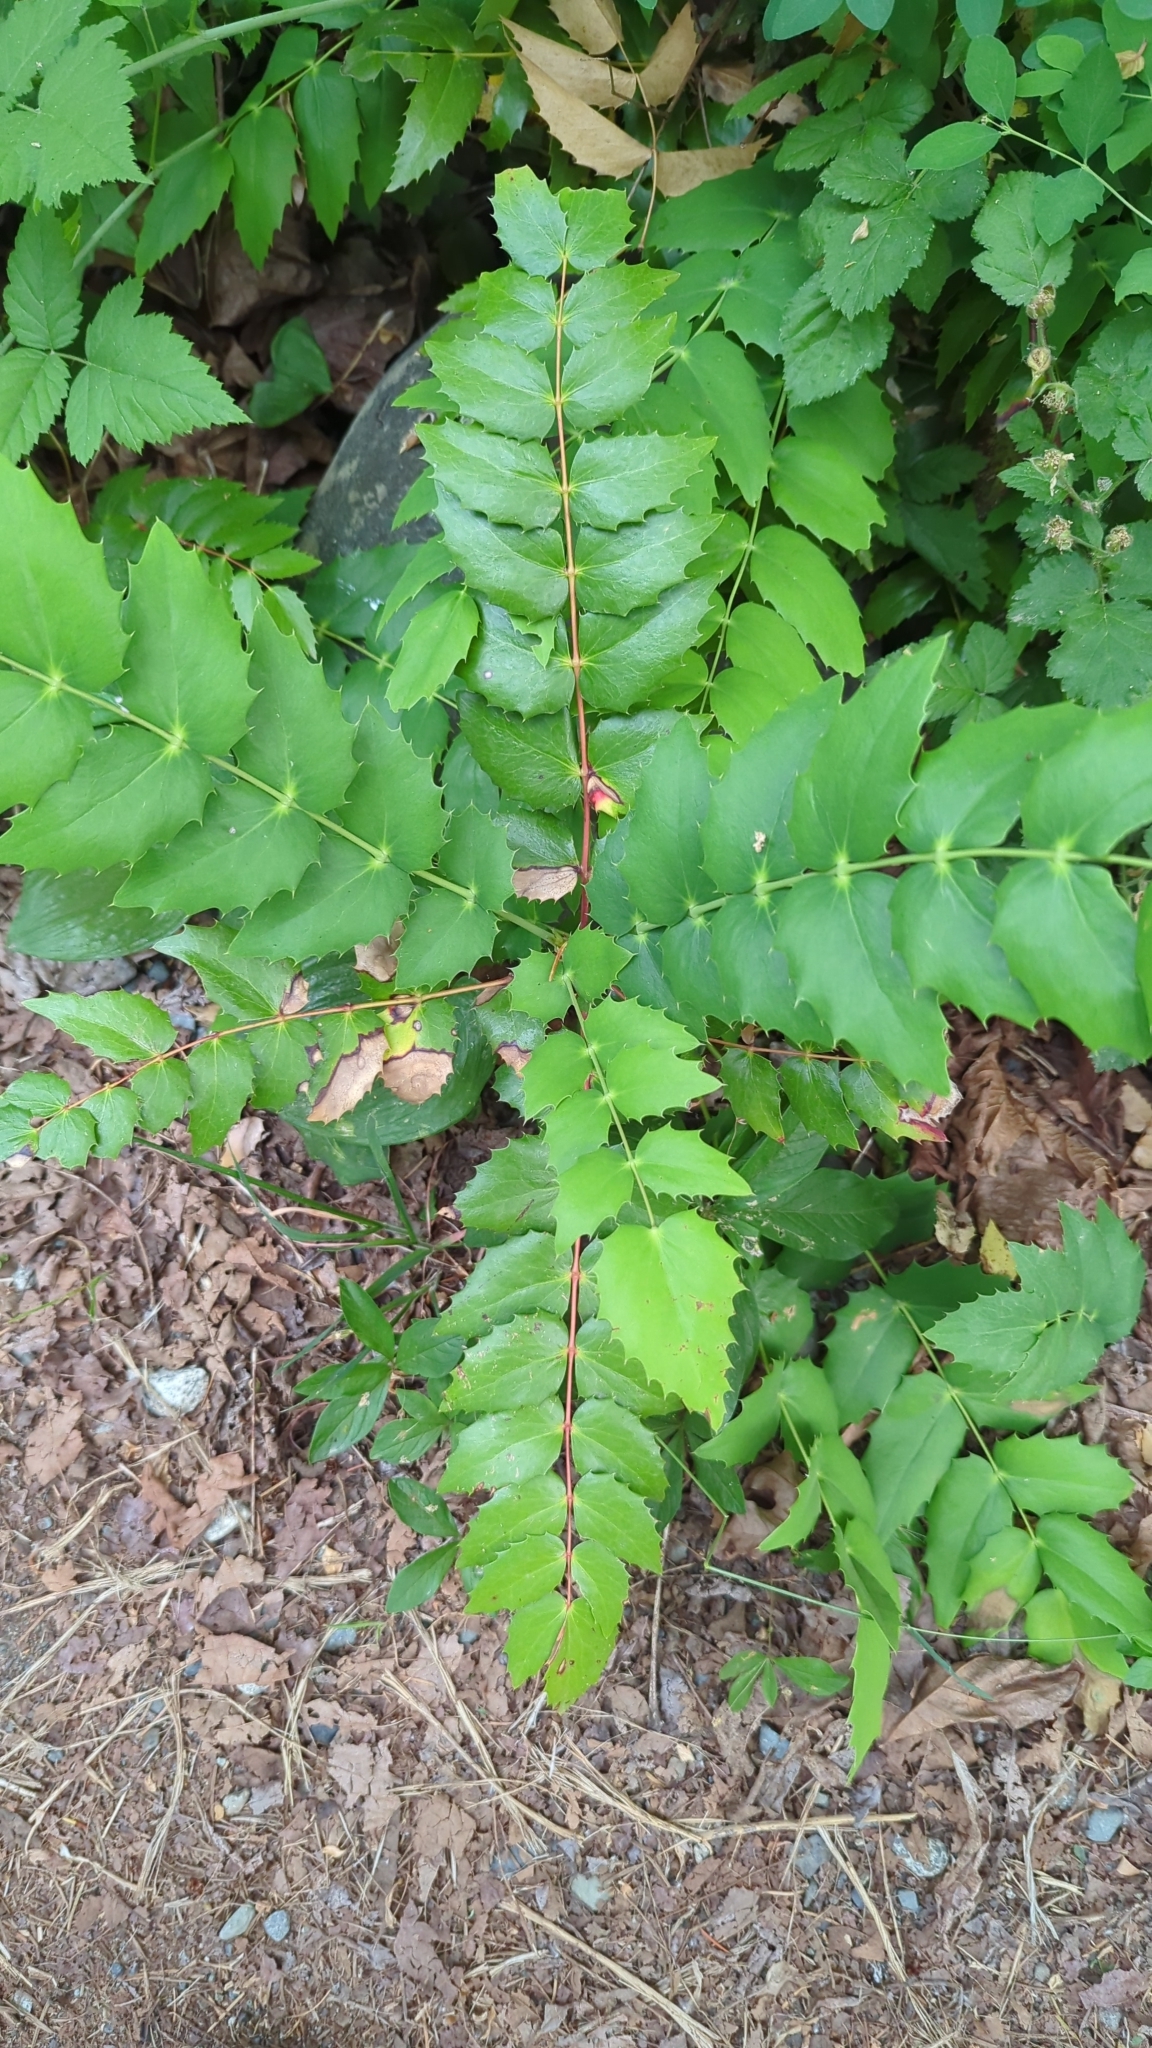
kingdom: Plantae
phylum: Tracheophyta
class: Magnoliopsida
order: Ranunculales
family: Berberidaceae
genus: Mahonia
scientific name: Mahonia nervosa
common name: Cascade oregon-grape
